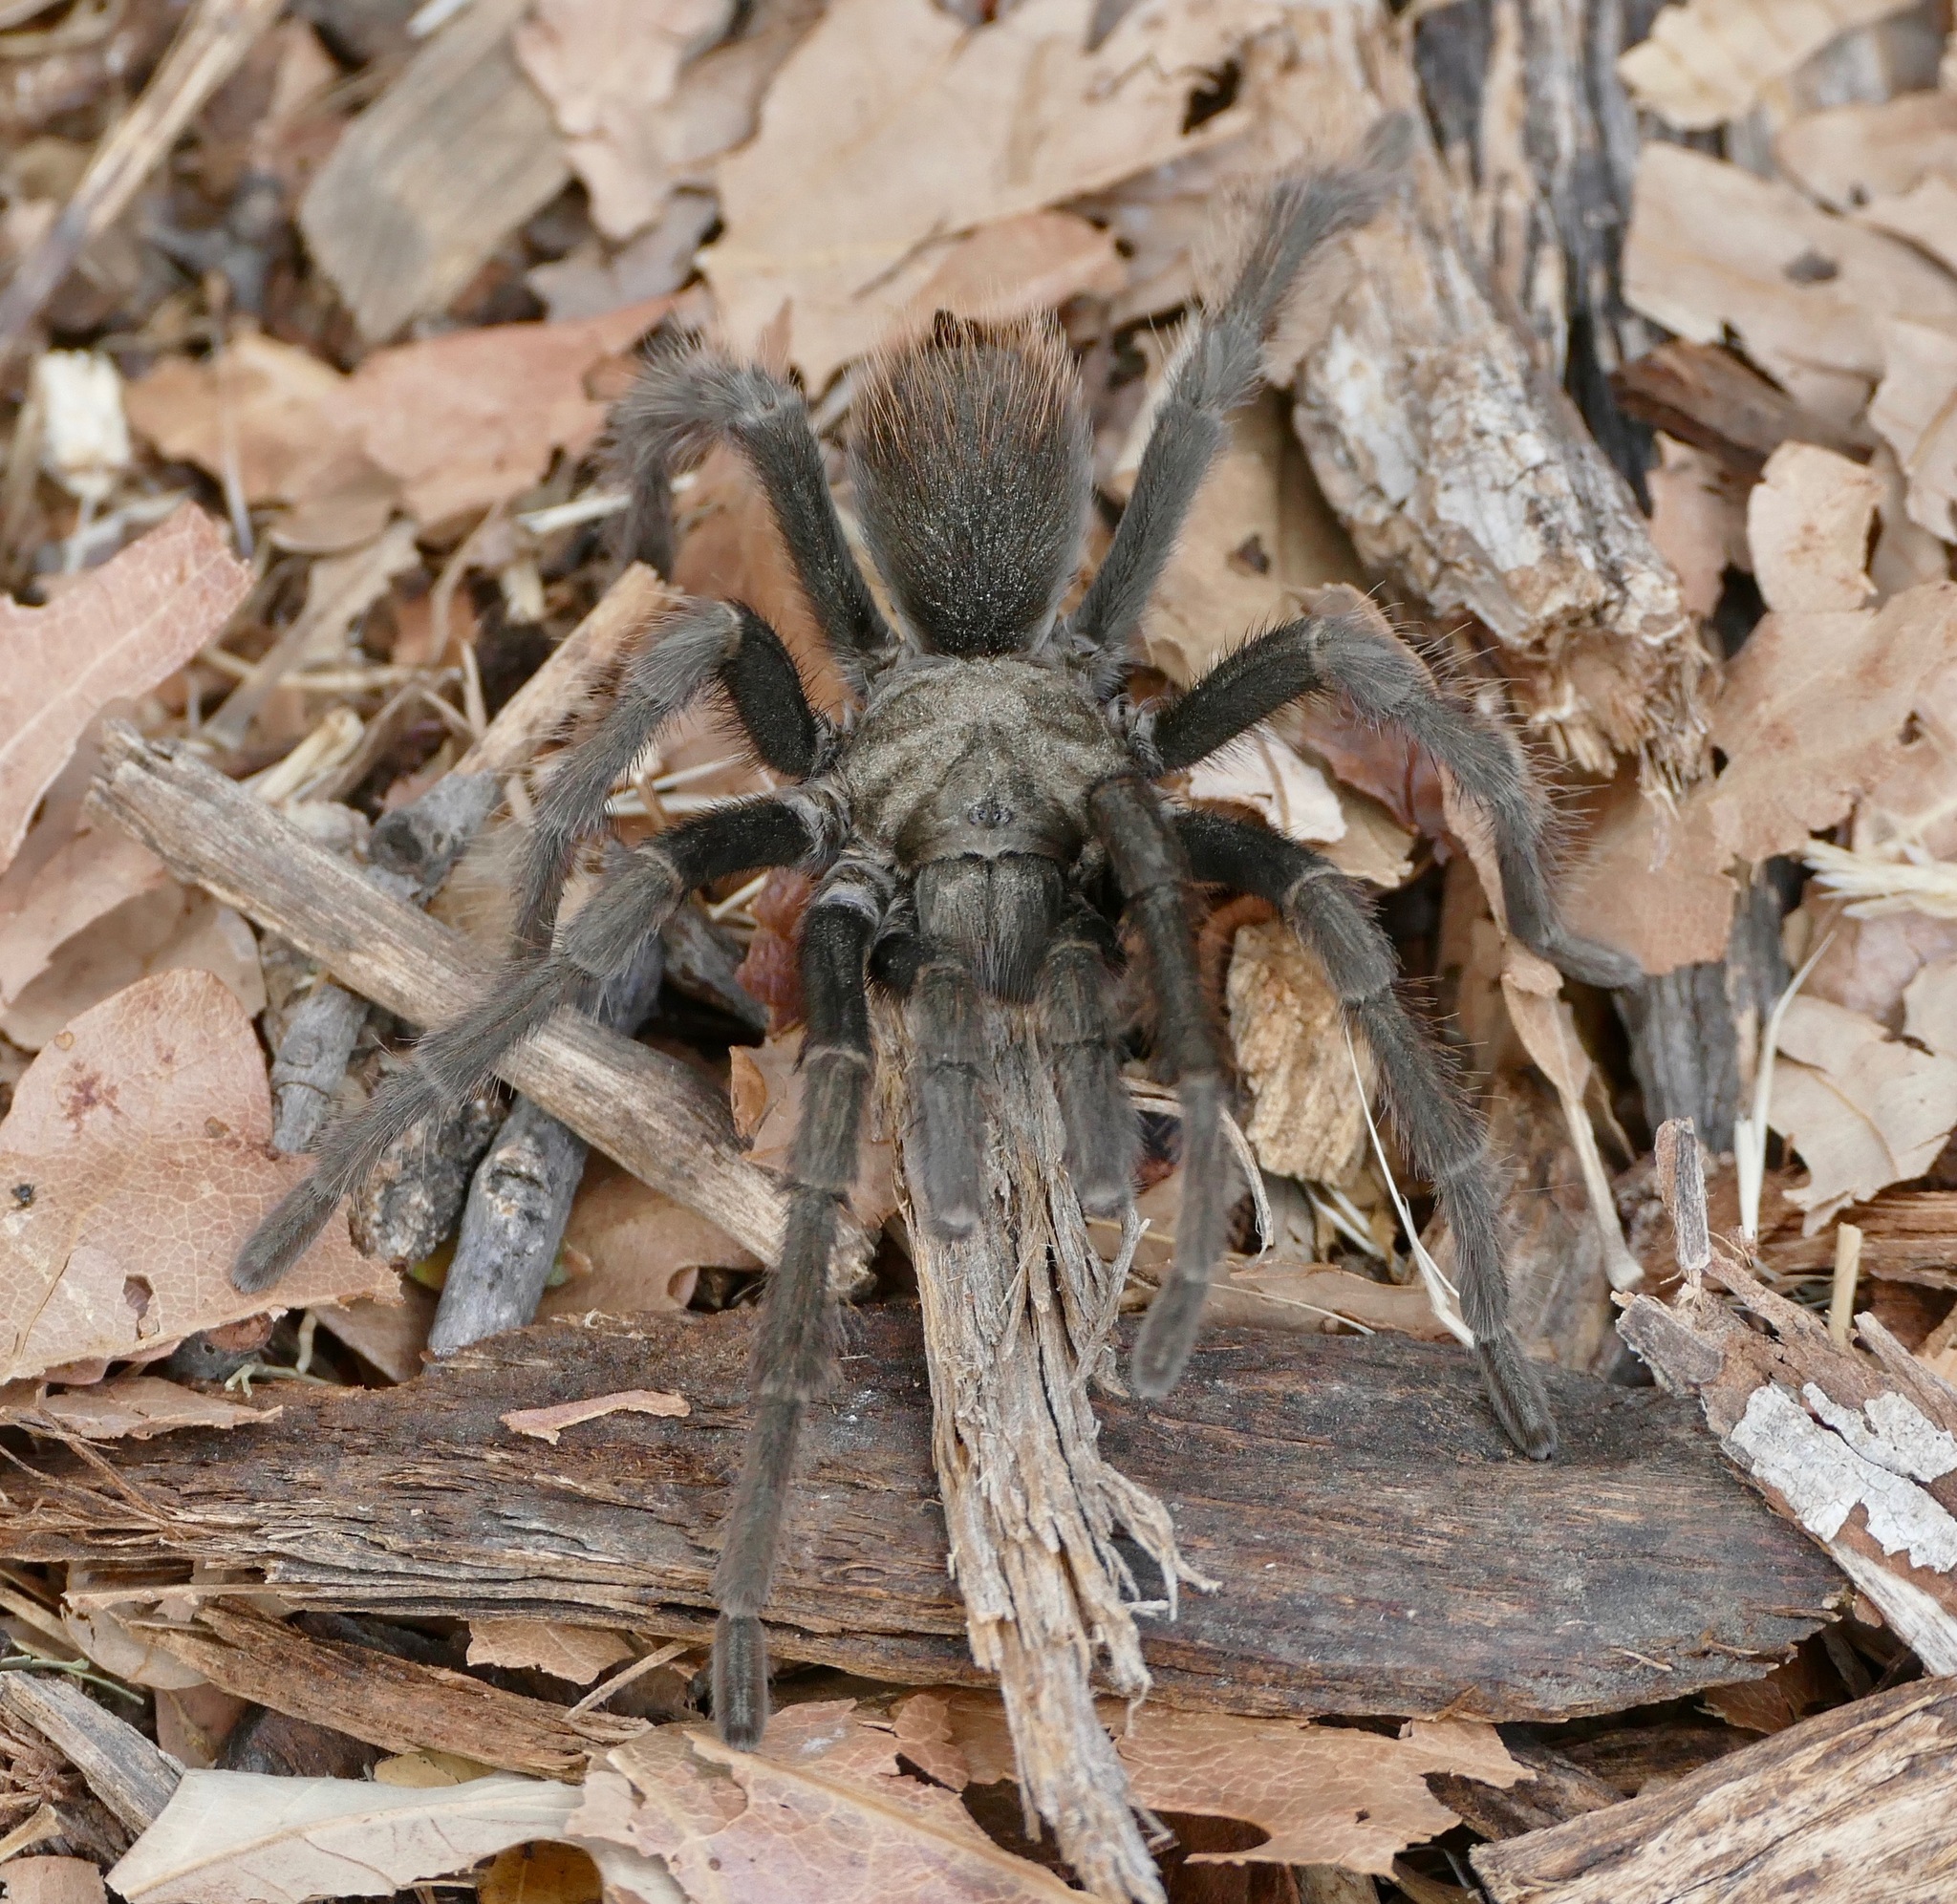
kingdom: Animalia
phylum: Arthropoda
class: Arachnida
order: Araneae
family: Theraphosidae
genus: Aphonopelma
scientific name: Aphonopelma iodius
